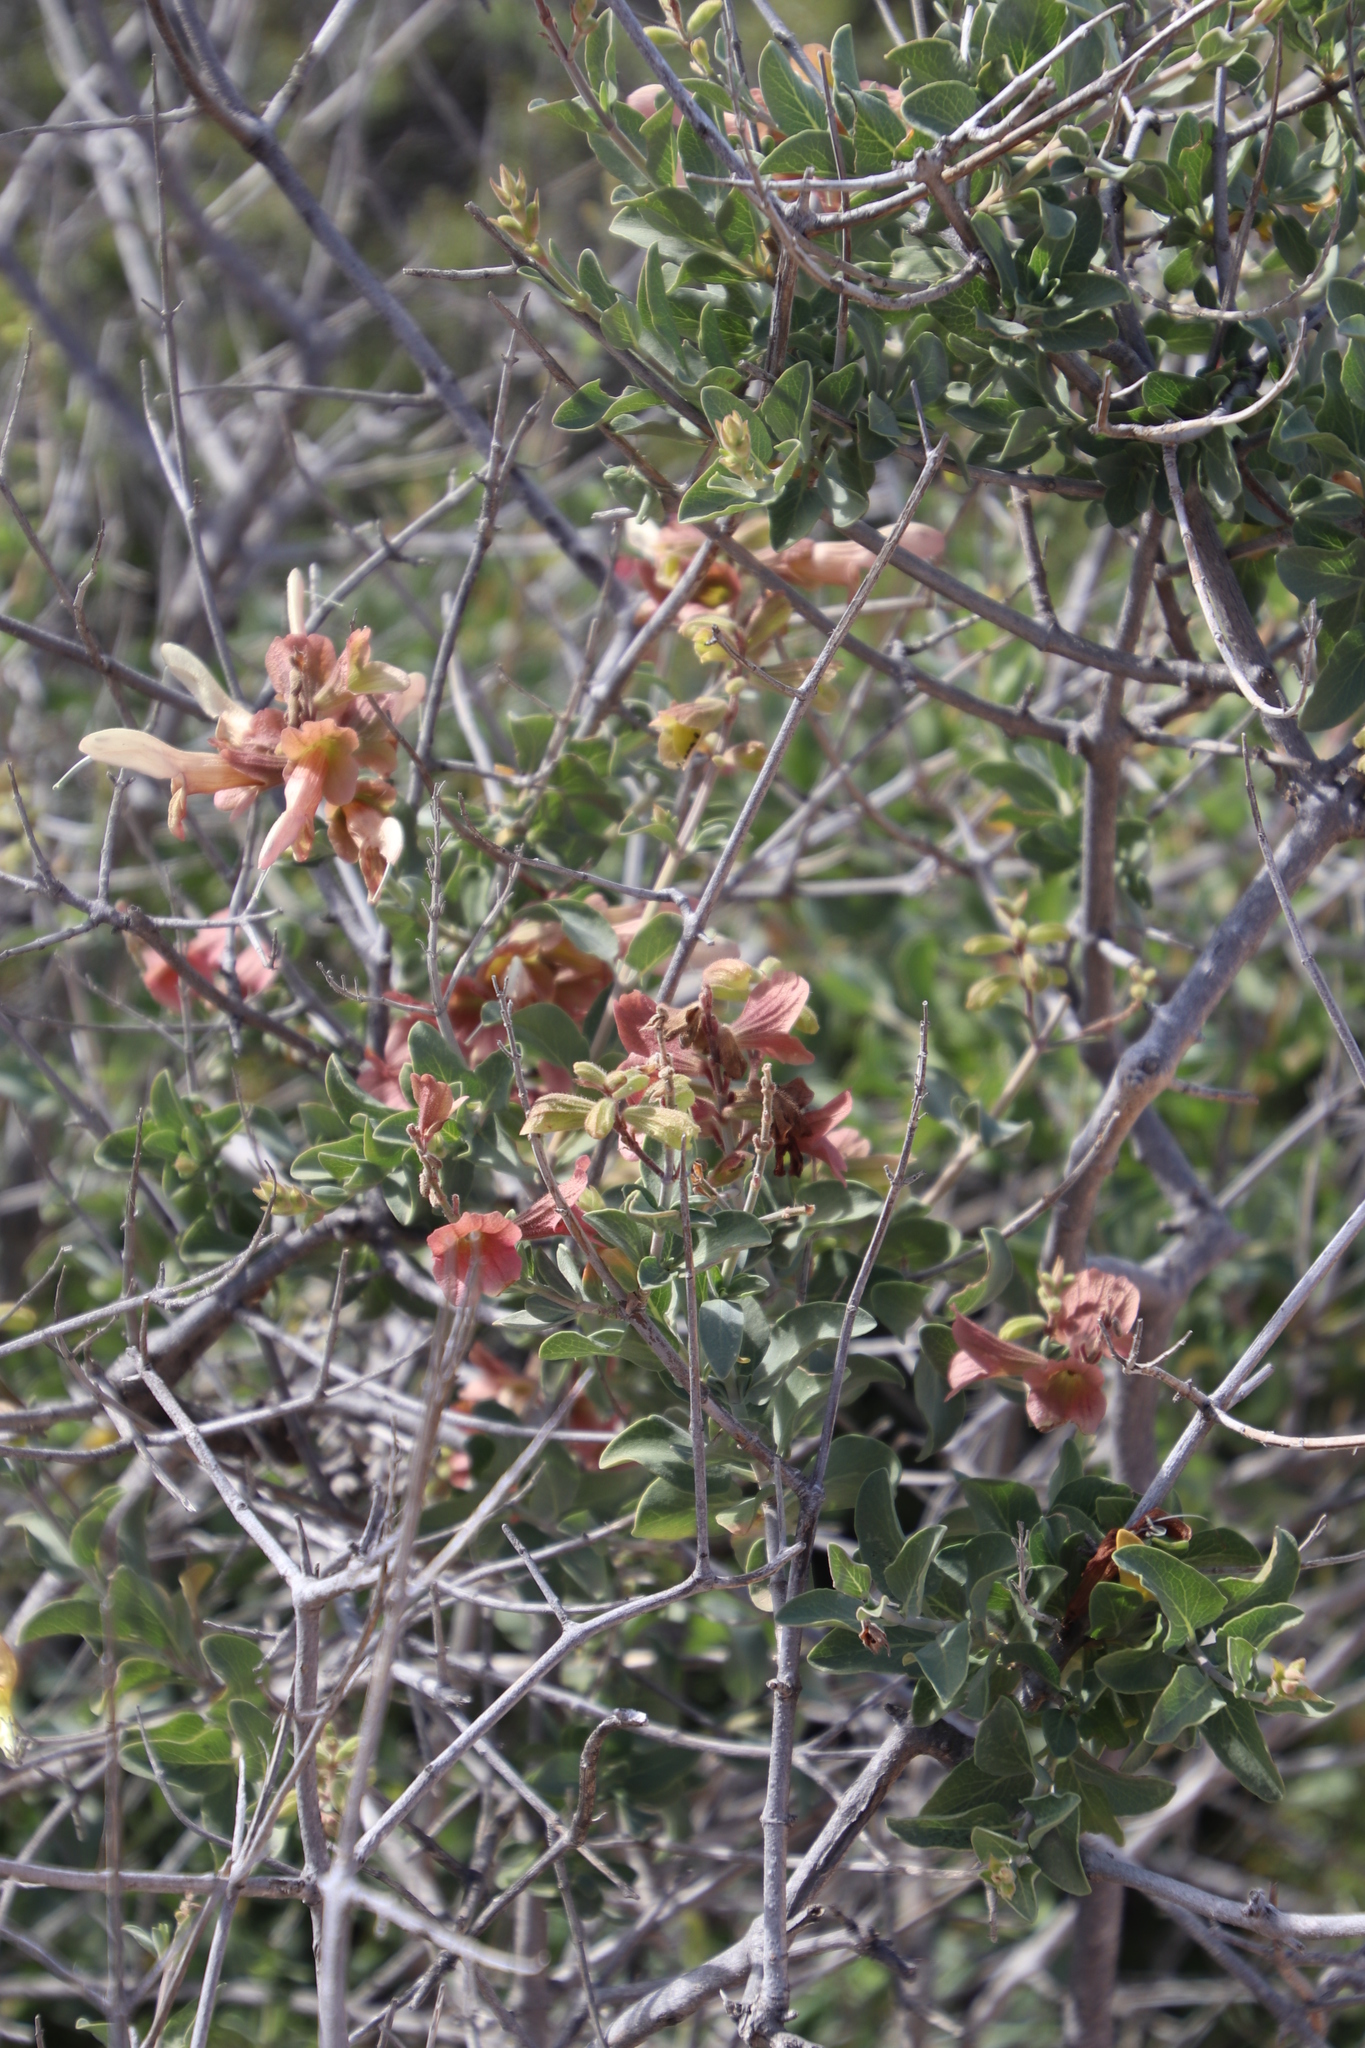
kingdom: Plantae
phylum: Tracheophyta
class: Magnoliopsida
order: Lamiales
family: Lamiaceae
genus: Salvia
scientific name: Salvia lanceolata
